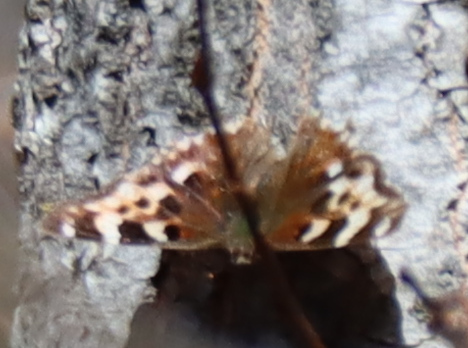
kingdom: Animalia
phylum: Arthropoda
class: Insecta
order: Lepidoptera
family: Nymphalidae
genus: Polygonia
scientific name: Polygonia vaualbum
